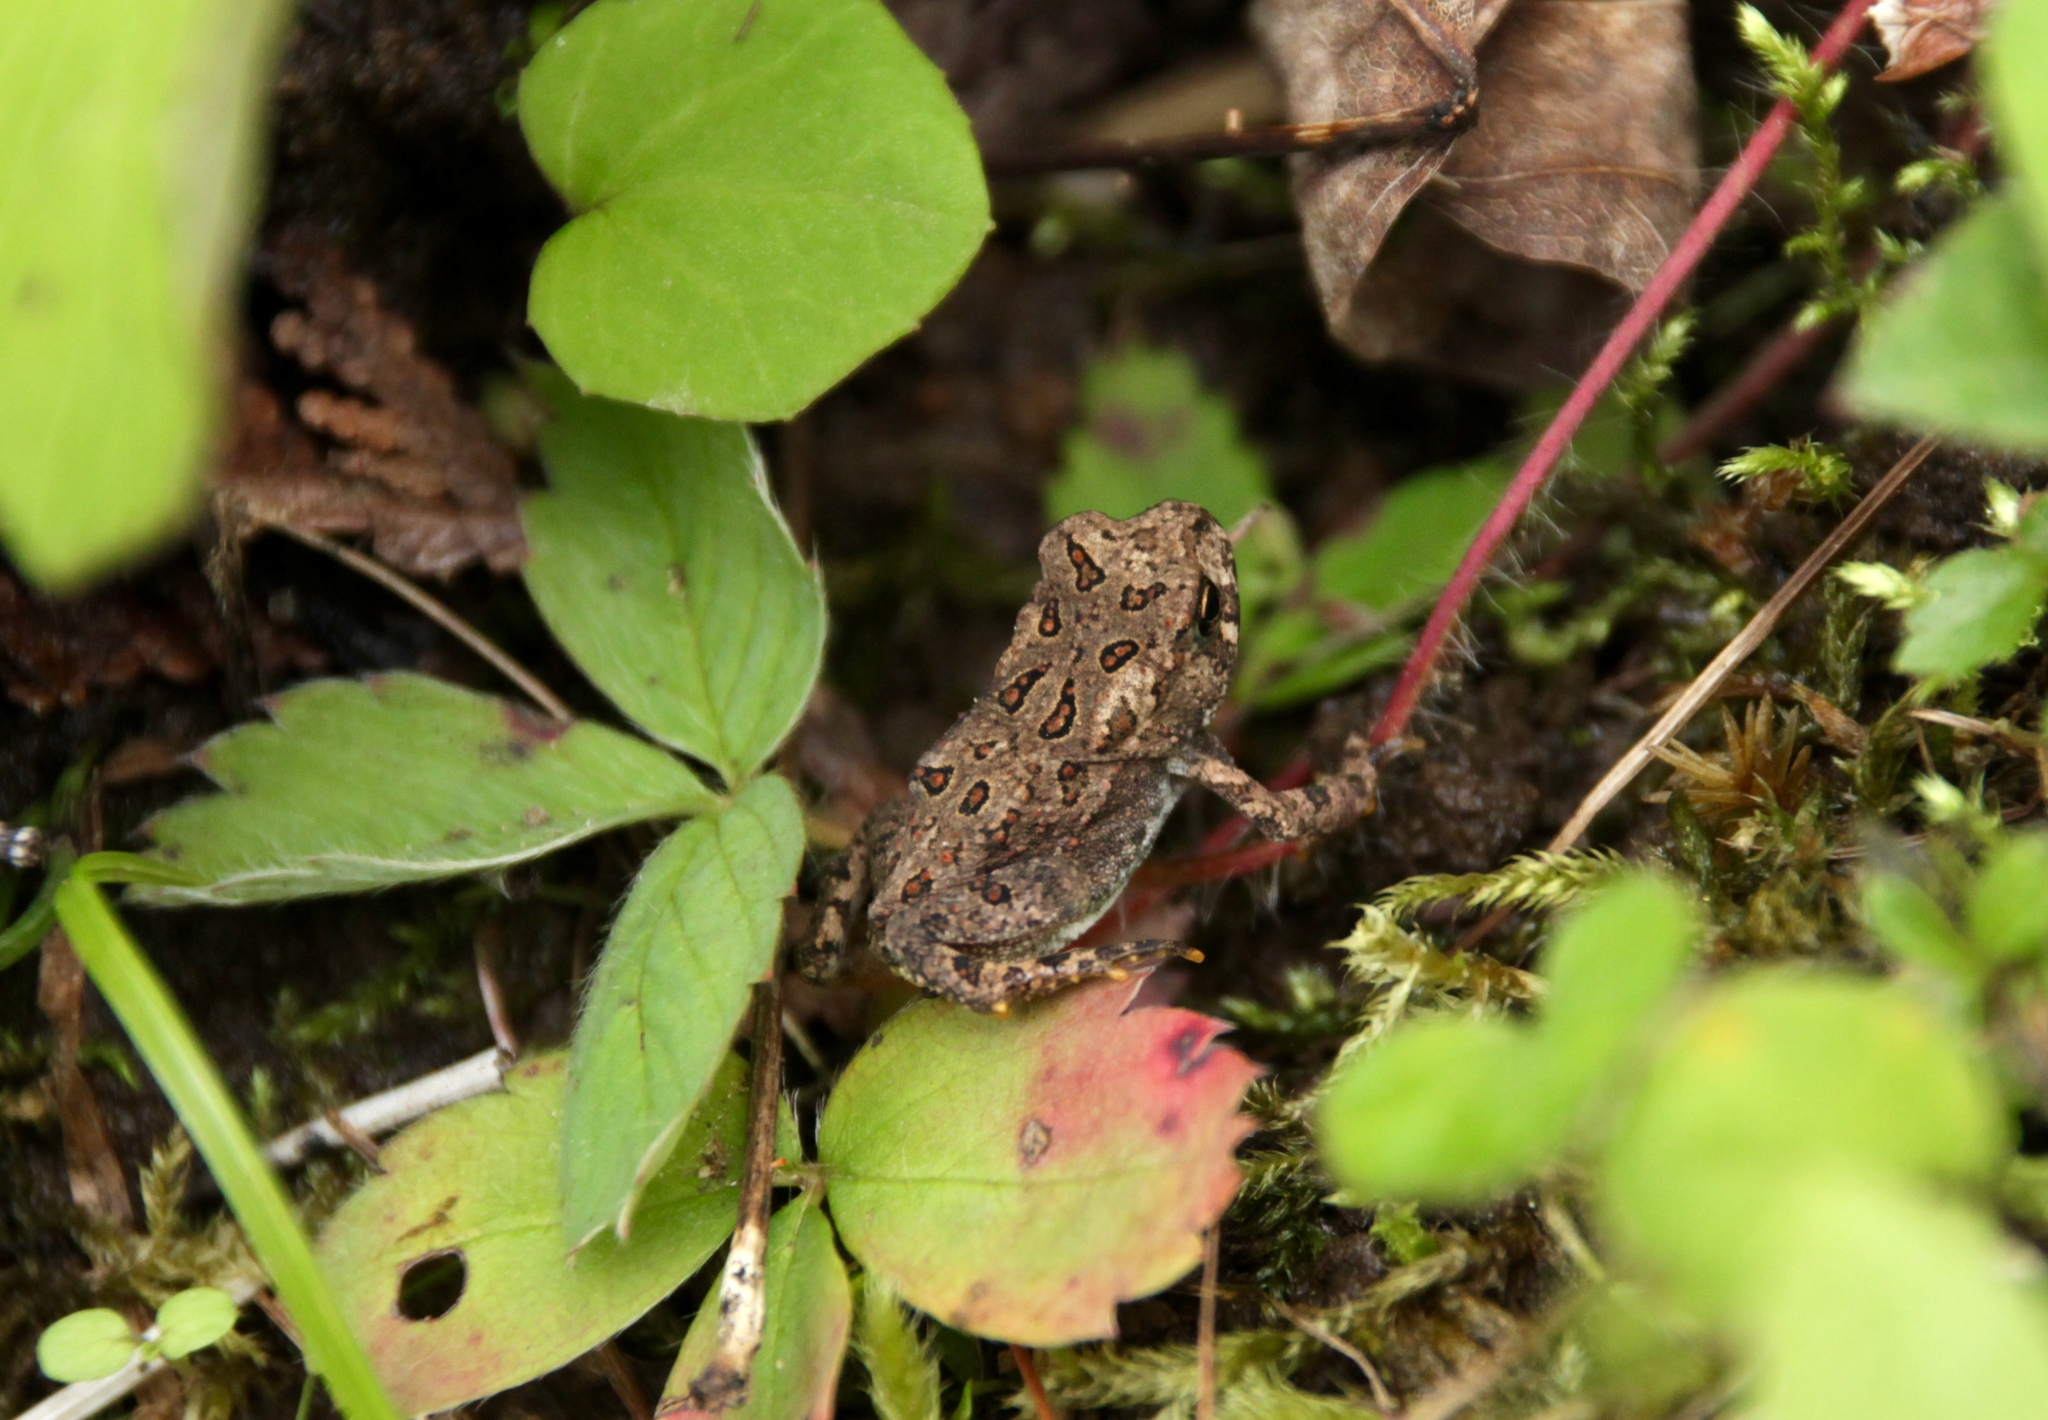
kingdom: Animalia
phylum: Chordata
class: Amphibia
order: Anura
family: Bufonidae
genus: Anaxyrus
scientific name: Anaxyrus americanus
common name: American toad
